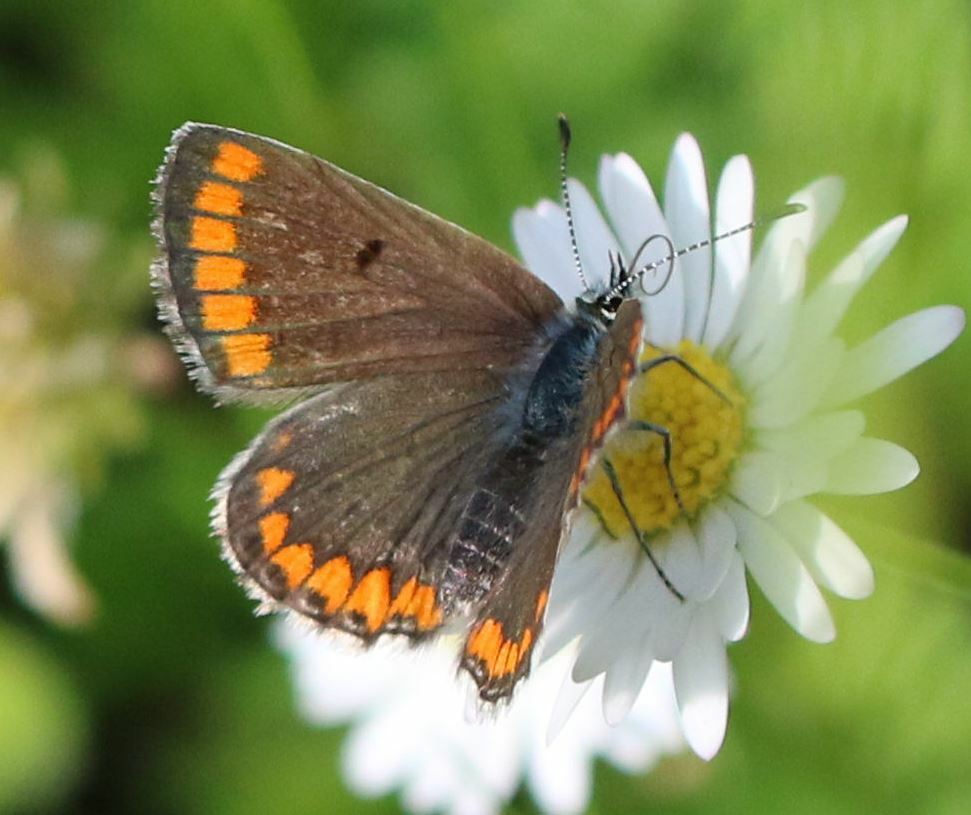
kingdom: Animalia
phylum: Arthropoda
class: Insecta
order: Lepidoptera
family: Lycaenidae
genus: Aricia
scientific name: Aricia agestis
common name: Brown argus
